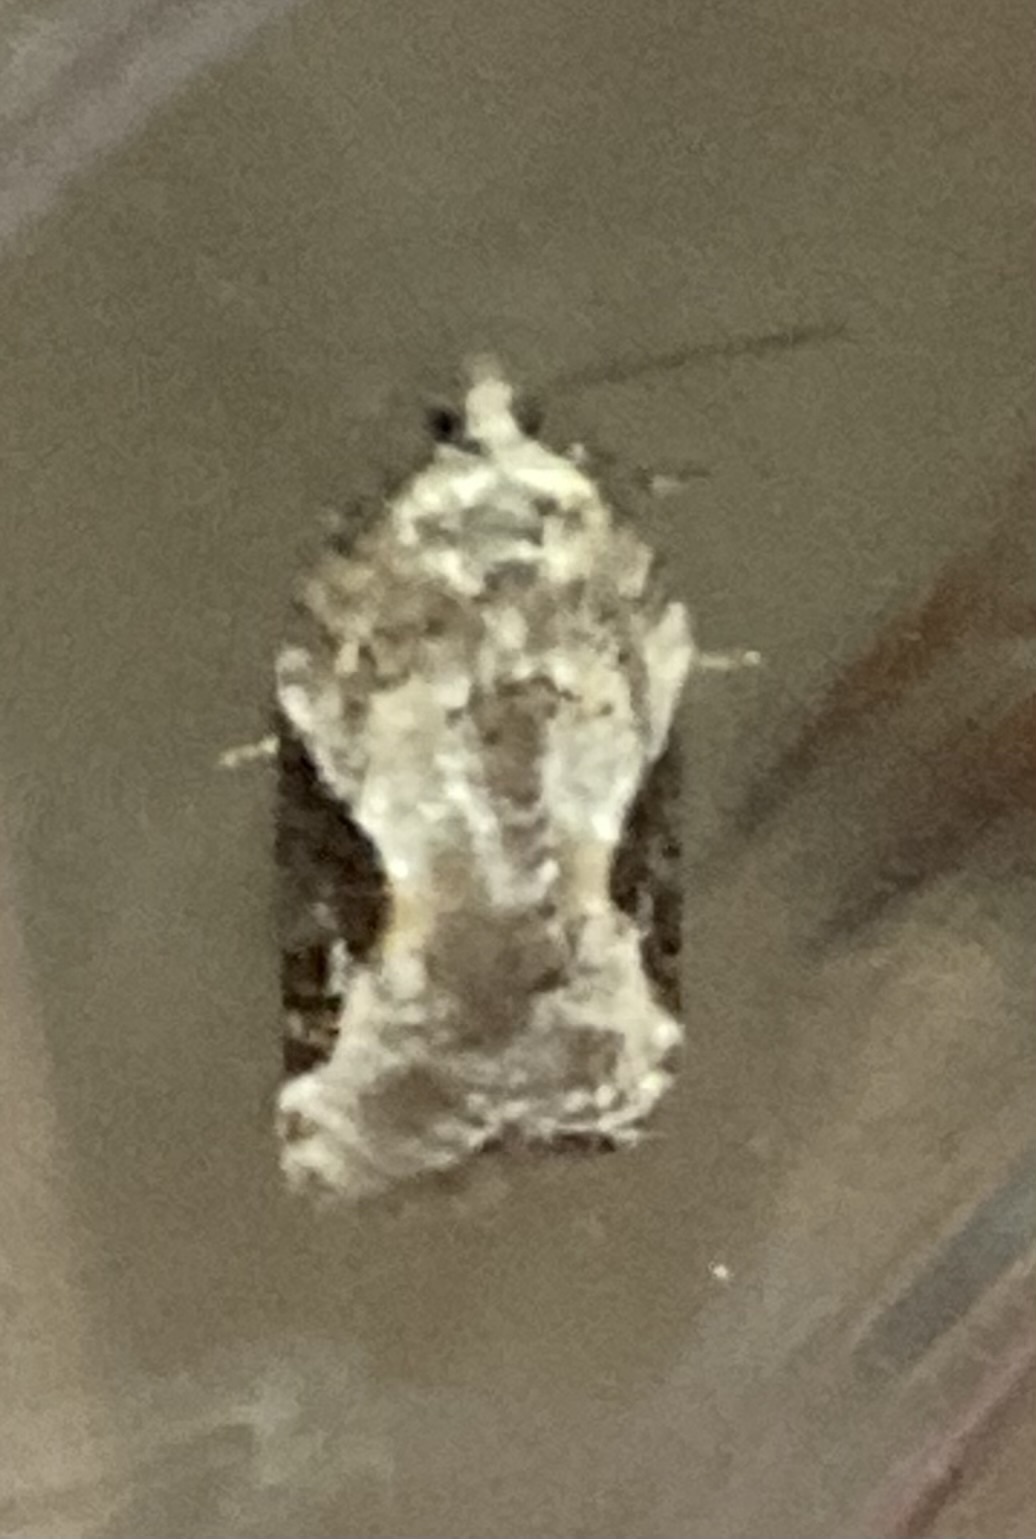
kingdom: Animalia
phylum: Arthropoda
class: Insecta
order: Lepidoptera
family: Tortricidae
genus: Acleris
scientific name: Acleris forbesana
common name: Forbes' acleris moth
